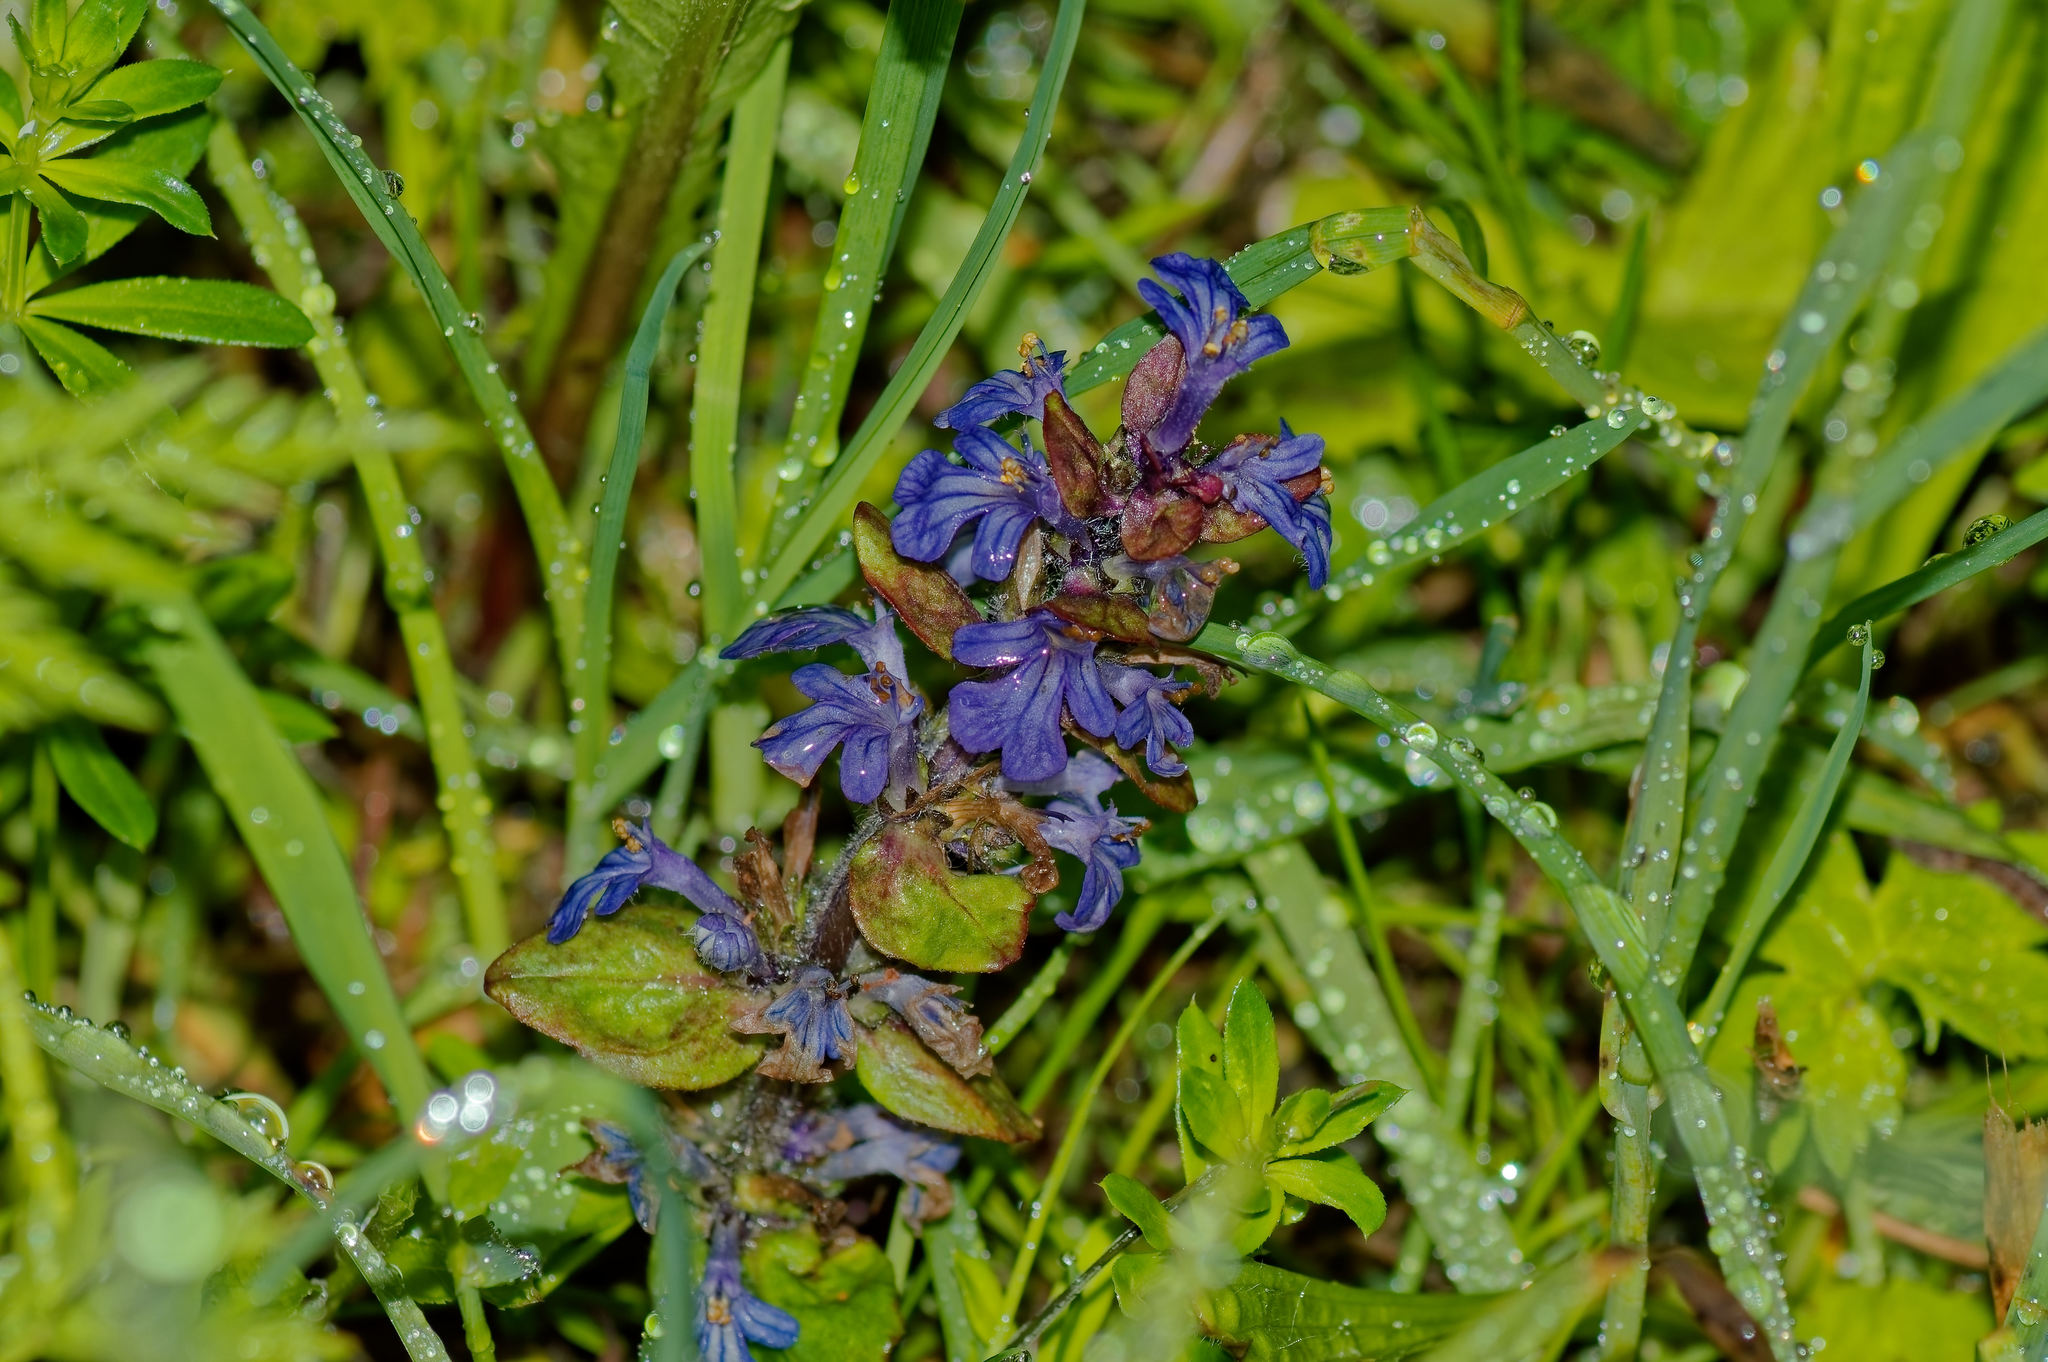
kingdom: Plantae
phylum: Tracheophyta
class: Magnoliopsida
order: Lamiales
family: Lamiaceae
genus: Ajuga
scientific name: Ajuga reptans
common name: Bugle
